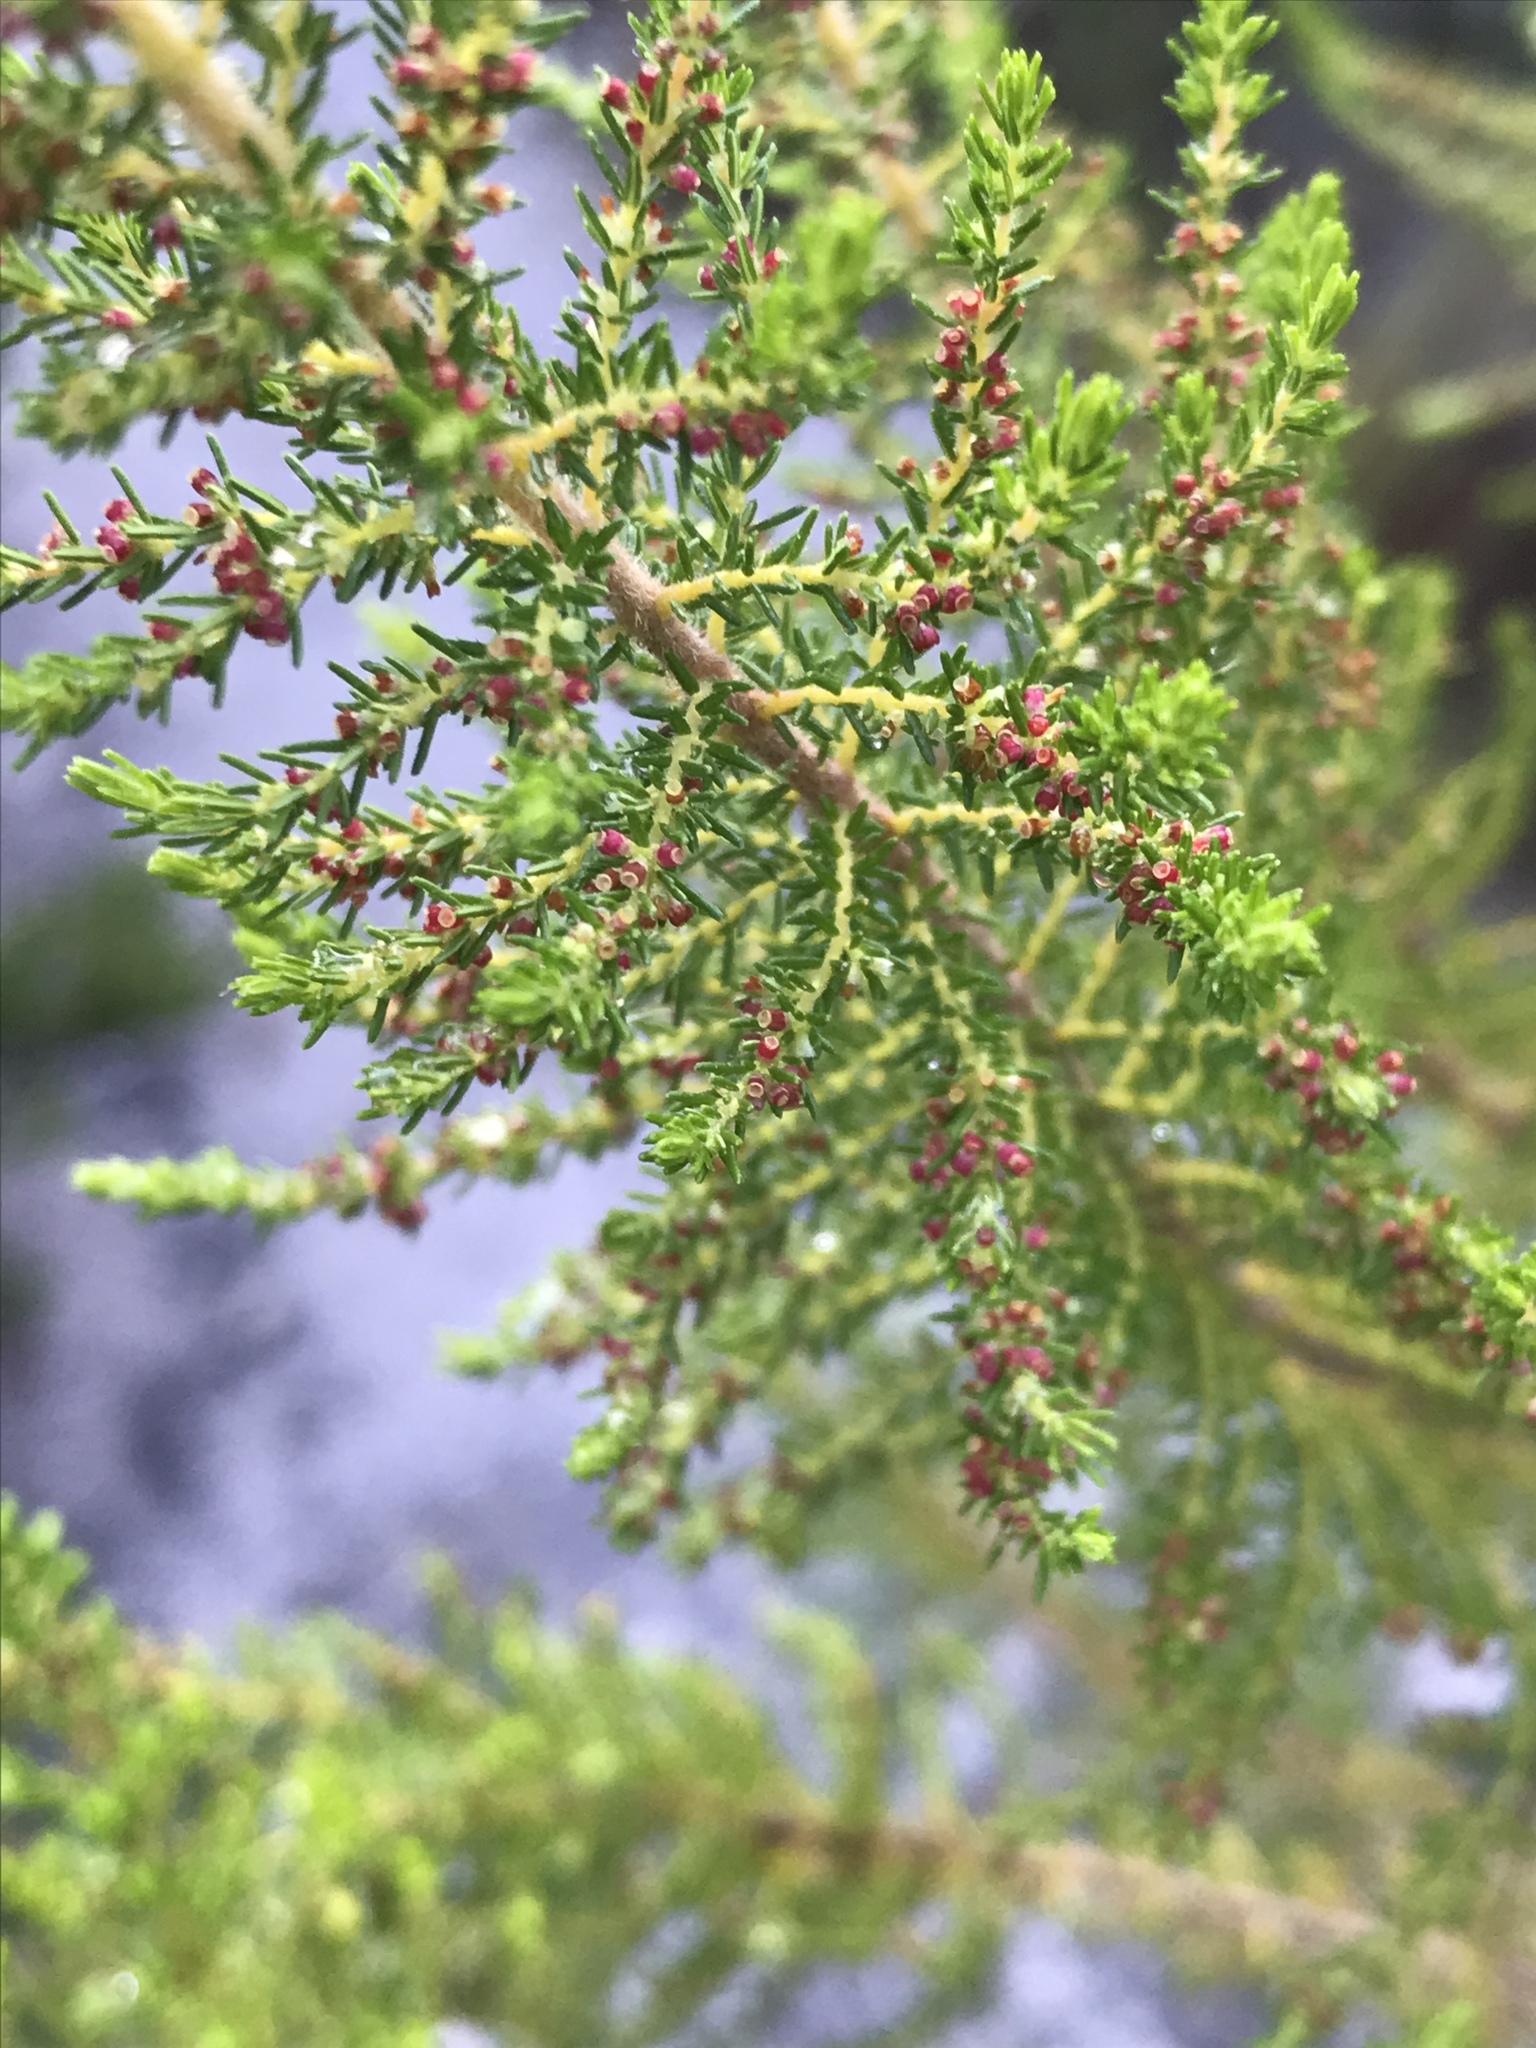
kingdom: Plantae
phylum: Tracheophyta
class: Magnoliopsida
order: Ericales
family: Ericaceae
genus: Erica
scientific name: Erica muscosa
